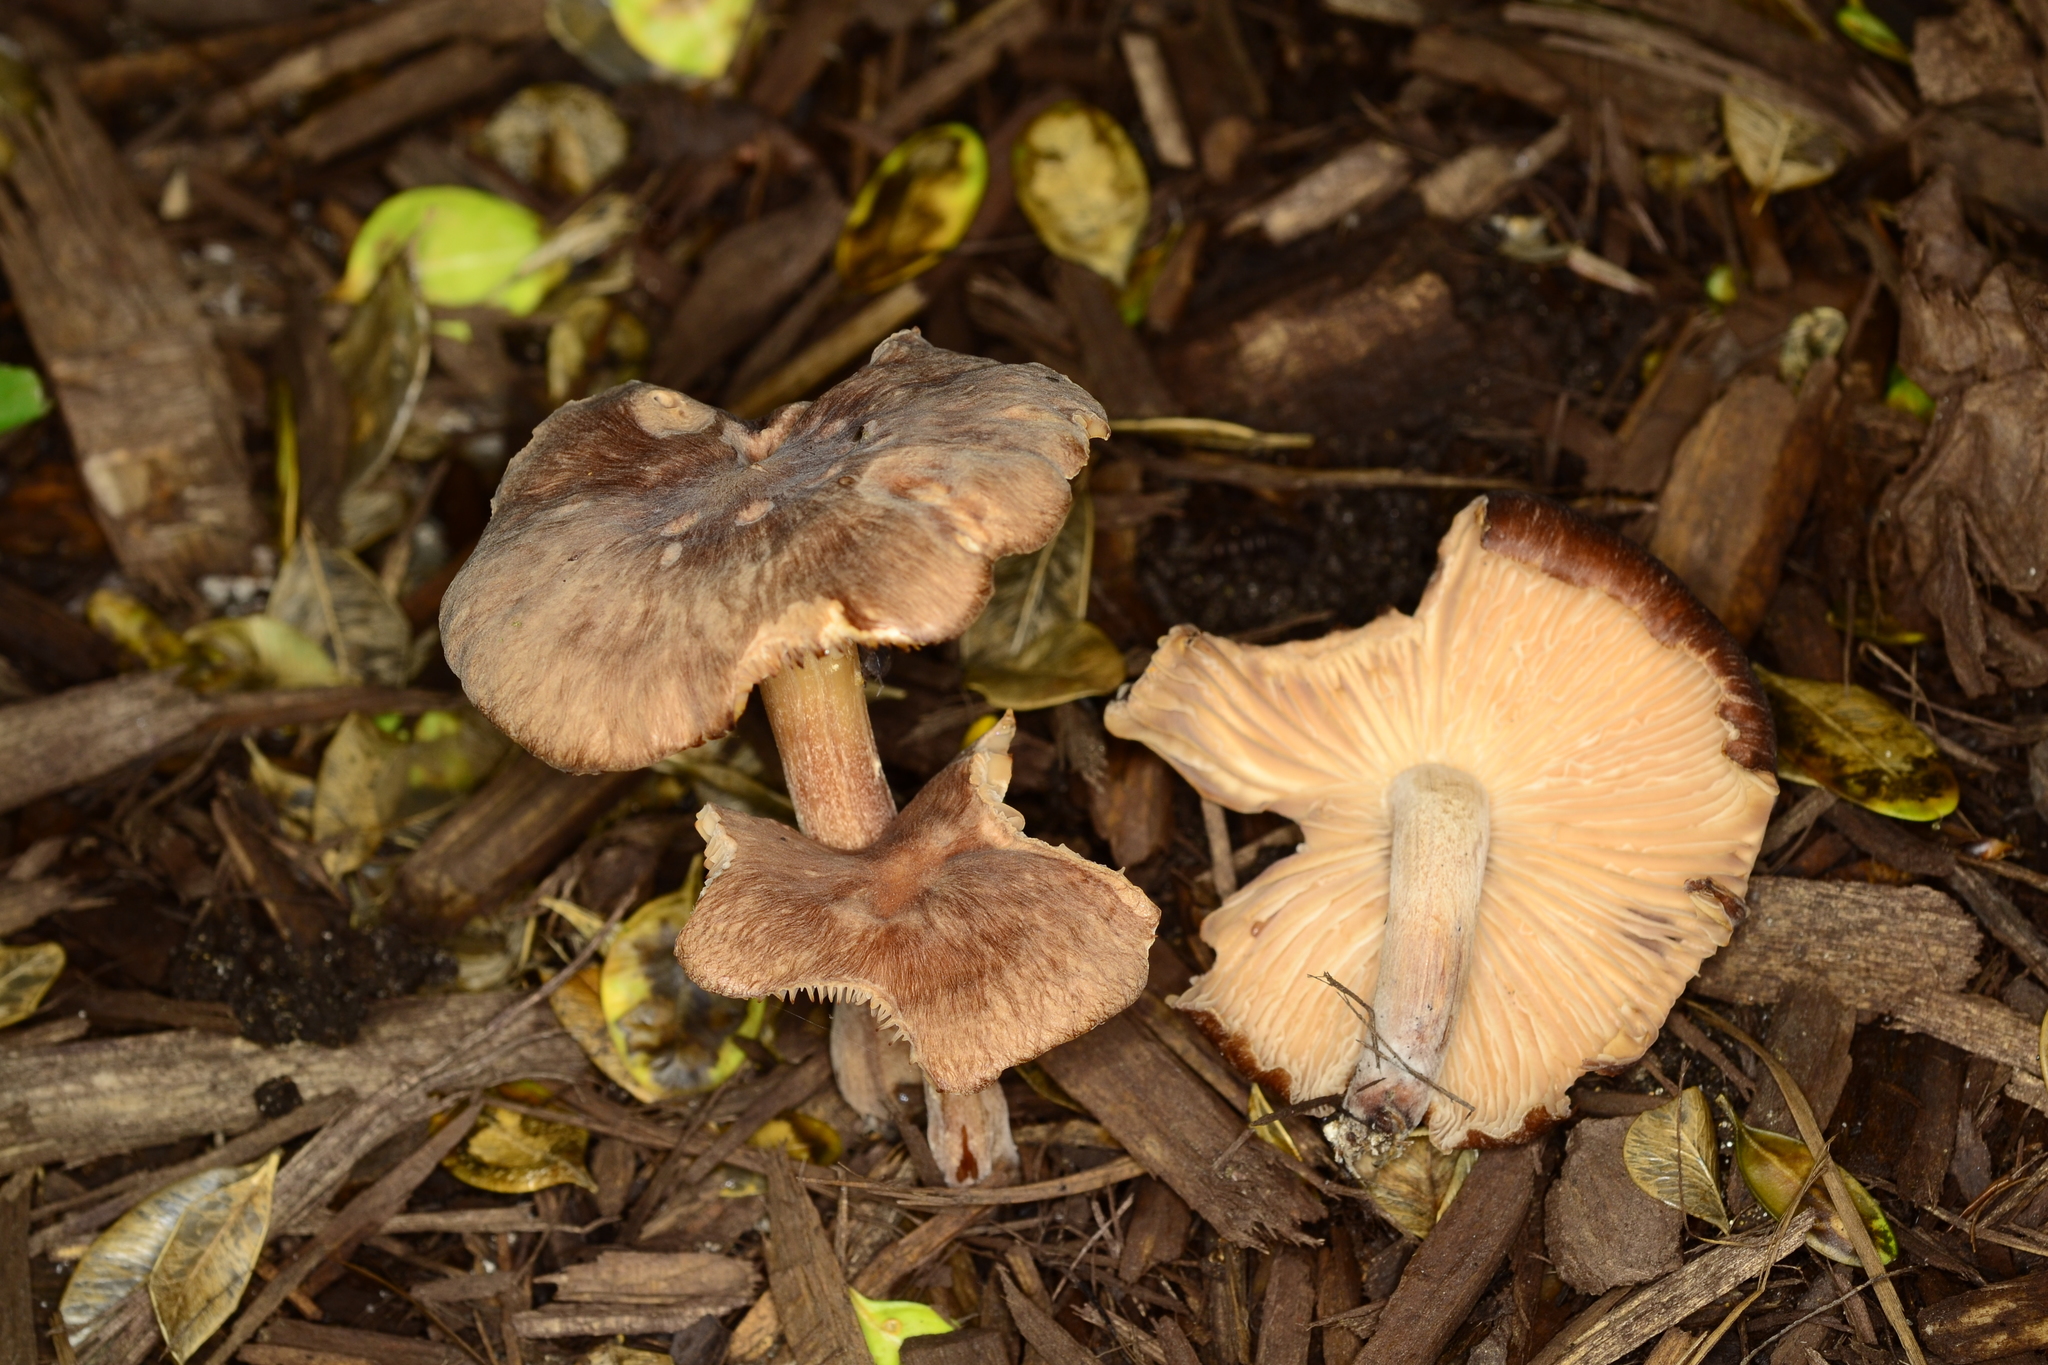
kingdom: Fungi
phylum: Basidiomycota
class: Agaricomycetes
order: Agaricales
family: Omphalotaceae
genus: Collybiopsis
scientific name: Collybiopsis luxurians
